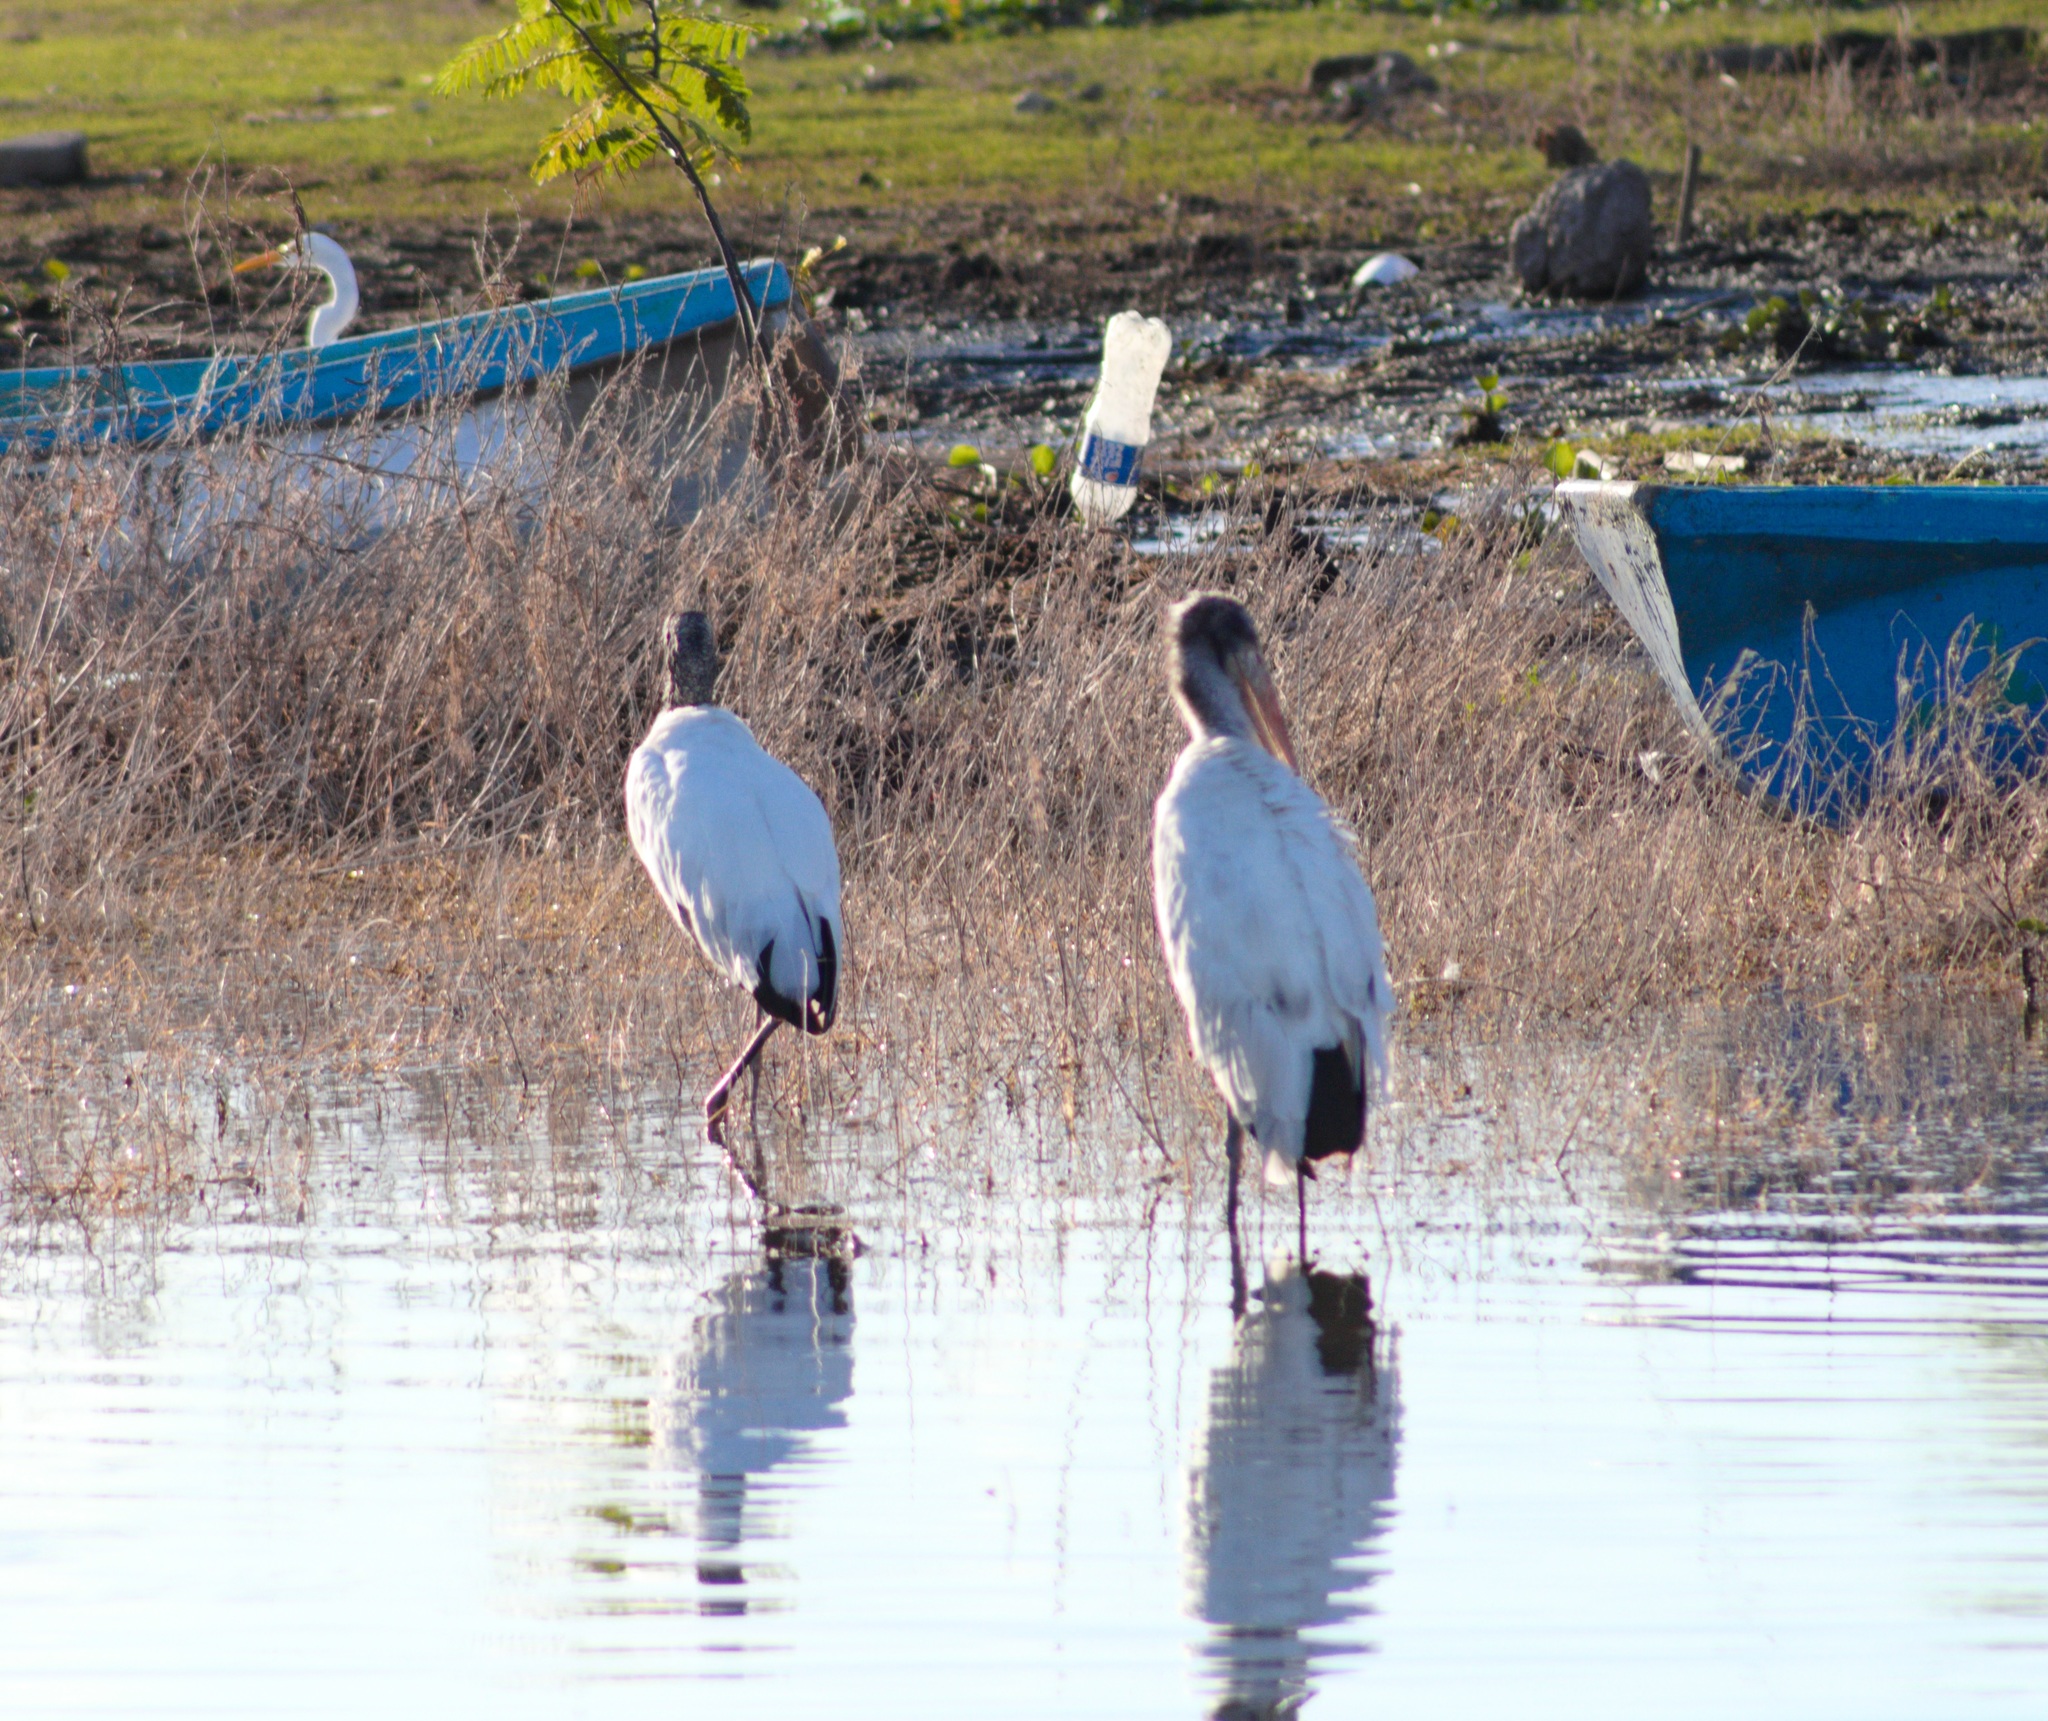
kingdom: Animalia
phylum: Chordata
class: Aves
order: Ciconiiformes
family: Ciconiidae
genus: Mycteria
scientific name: Mycteria americana
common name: Wood stork
